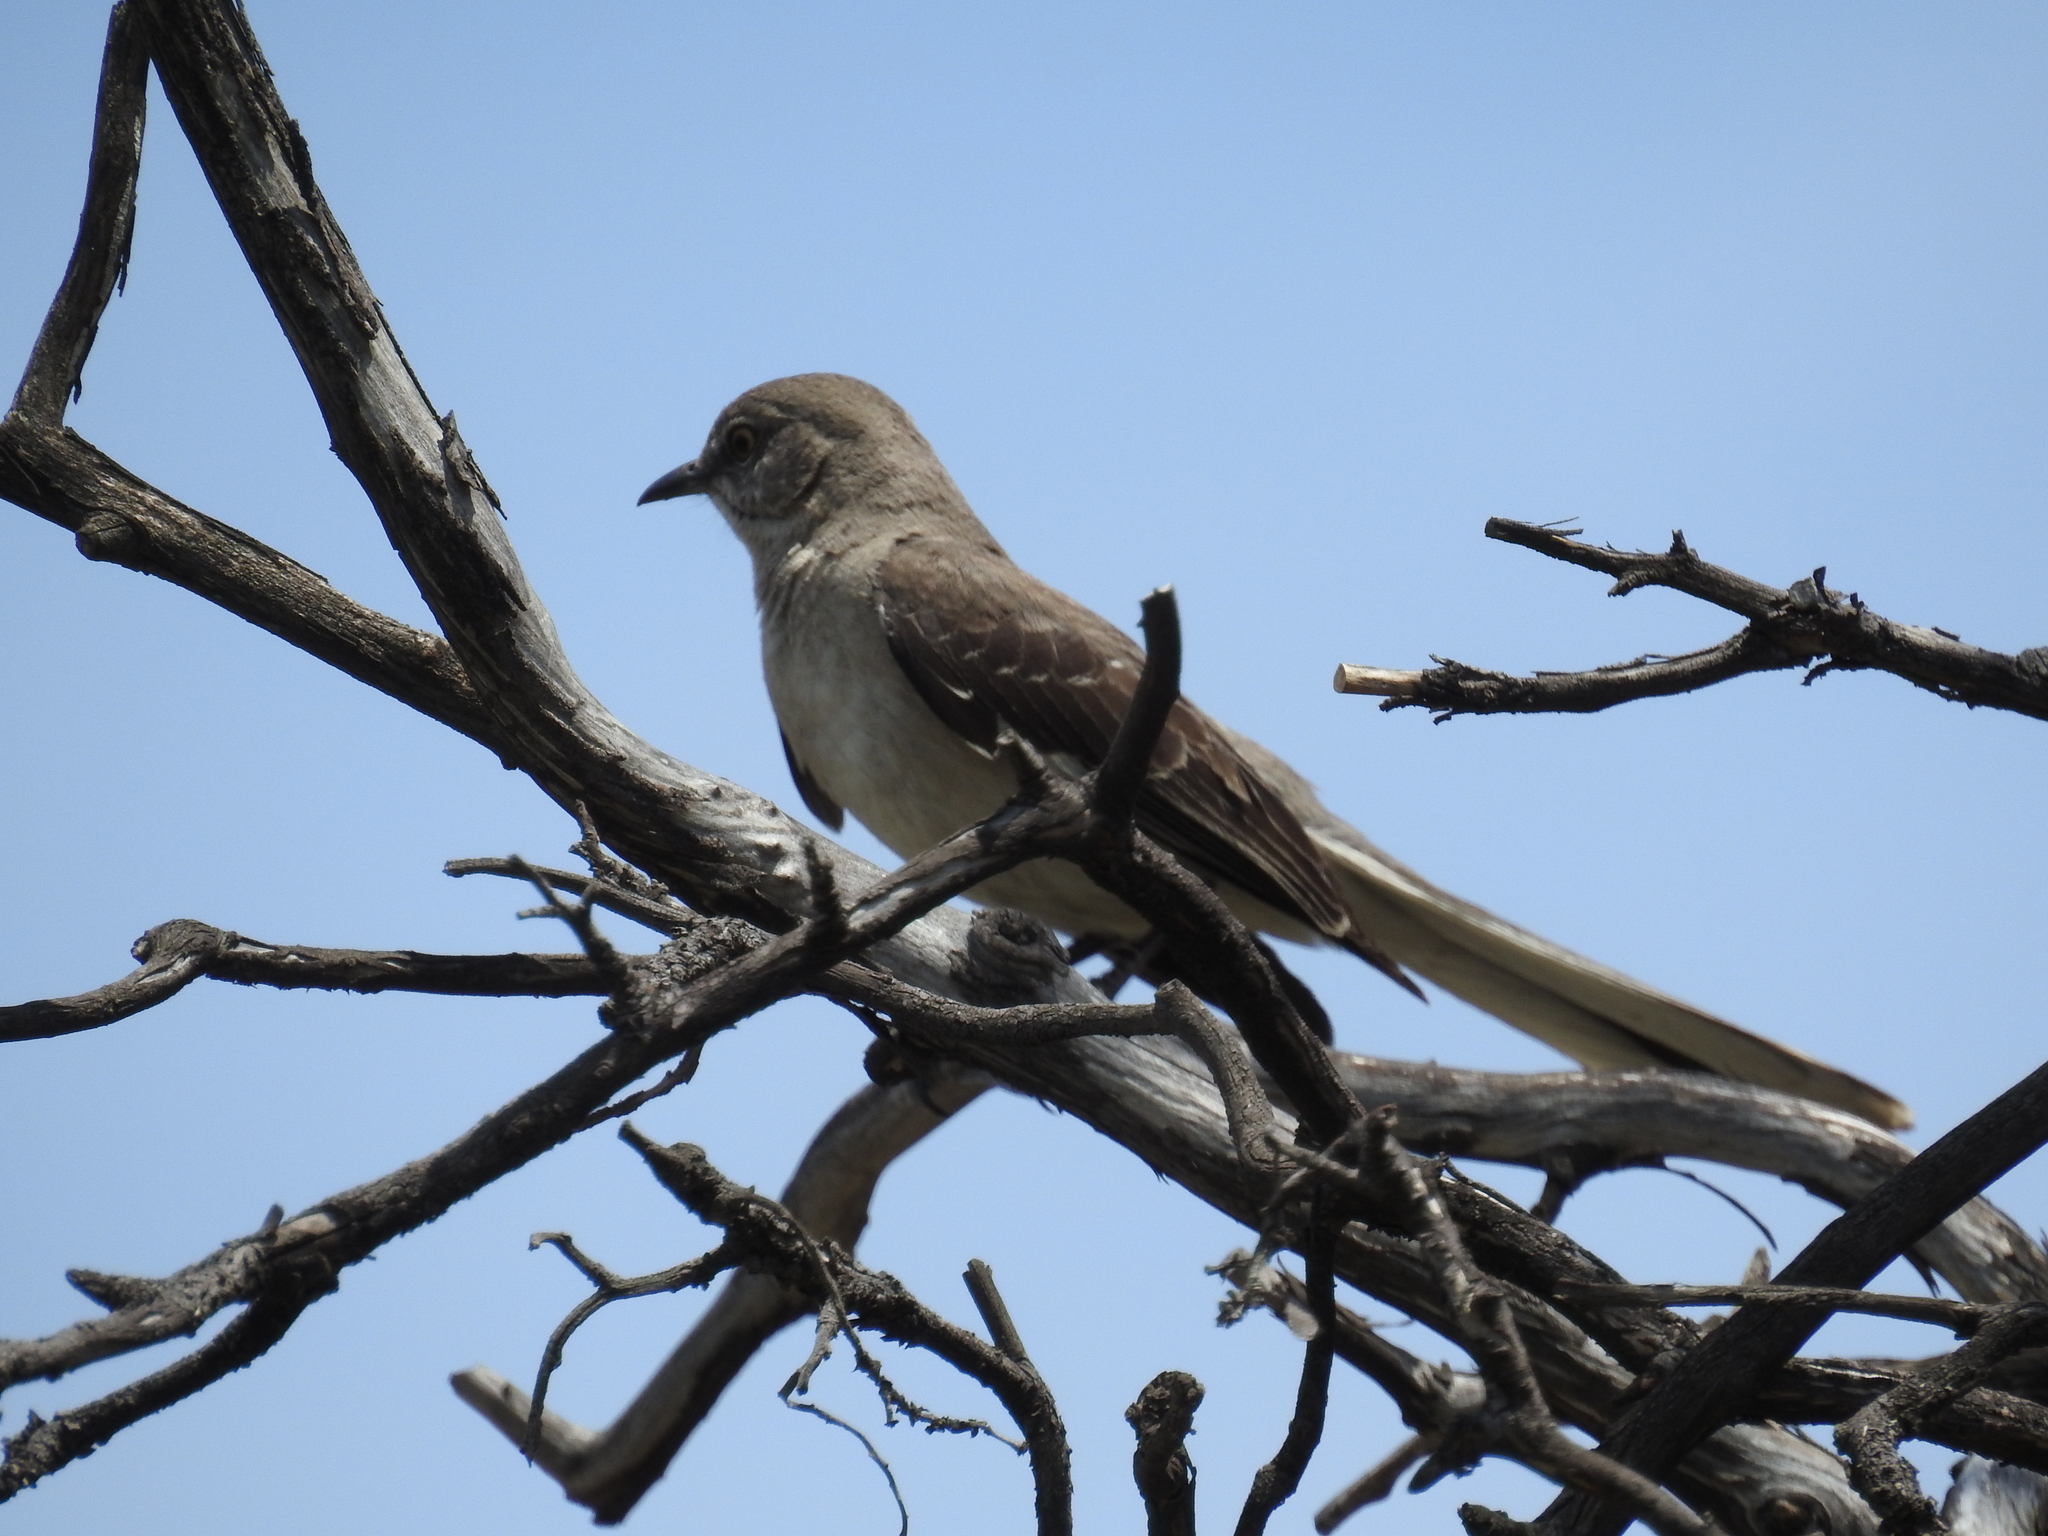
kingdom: Animalia
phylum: Chordata
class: Aves
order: Passeriformes
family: Mimidae
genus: Mimus
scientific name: Mimus polyglottos
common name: Northern mockingbird
